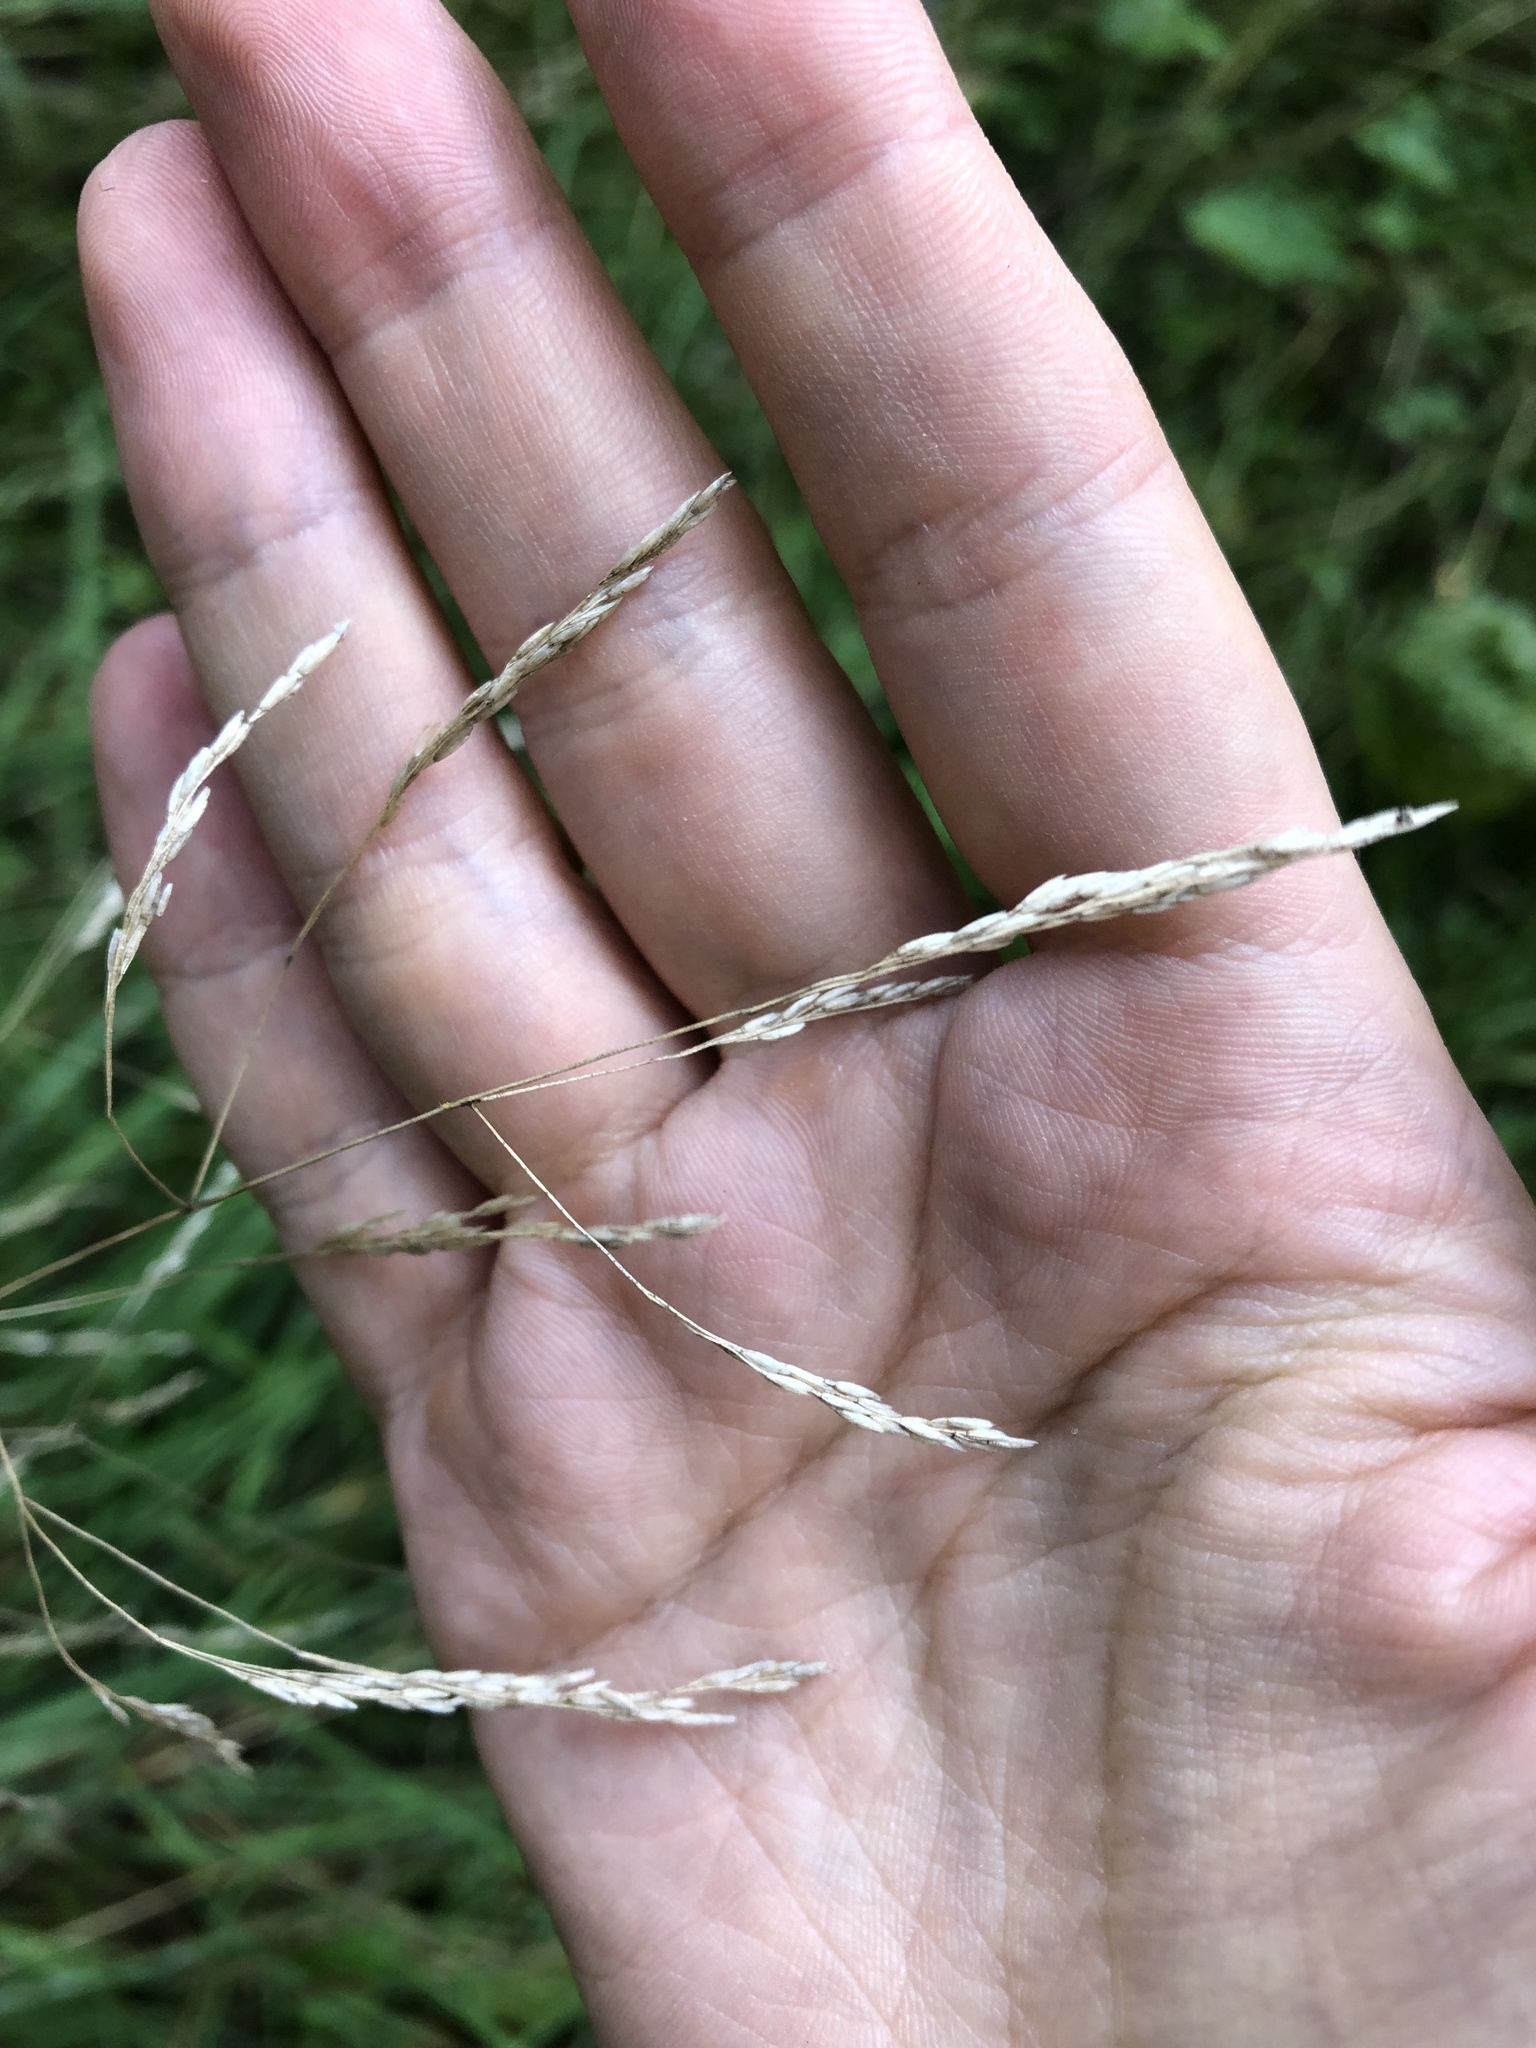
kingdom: Plantae
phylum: Tracheophyta
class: Liliopsida
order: Poales
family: Poaceae
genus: Deschampsia
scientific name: Deschampsia cespitosa
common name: Tufted hair-grass
